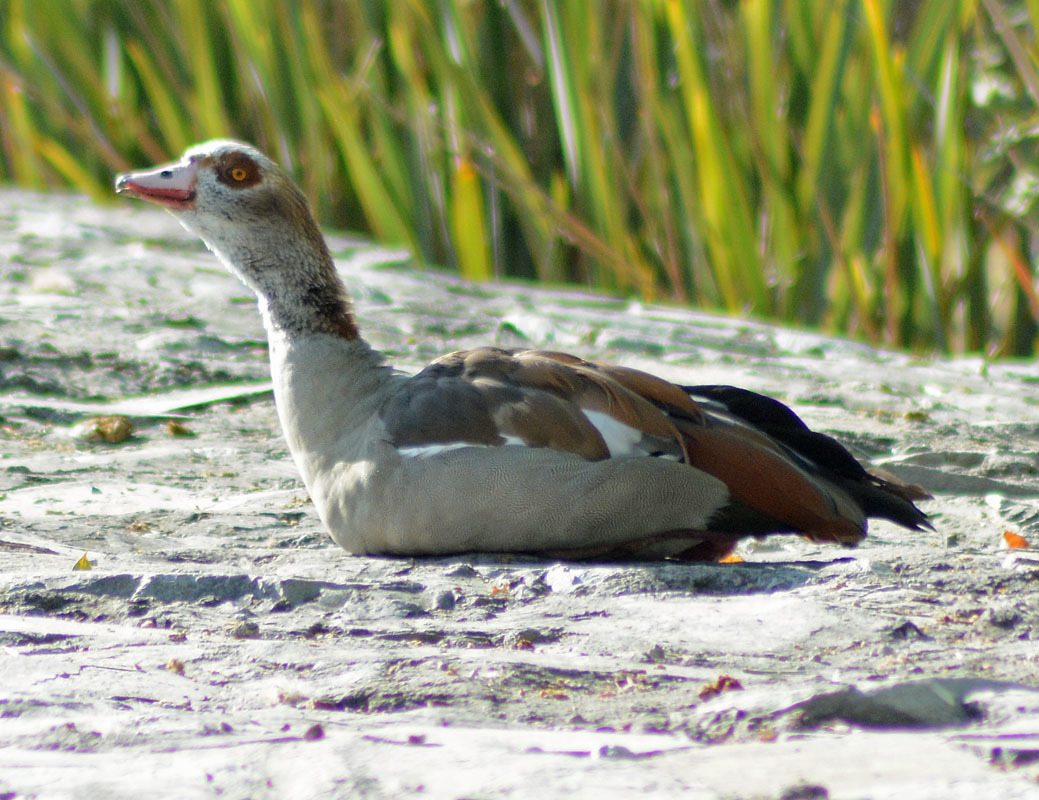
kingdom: Animalia
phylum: Chordata
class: Aves
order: Anseriformes
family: Anatidae
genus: Alopochen
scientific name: Alopochen aegyptiaca
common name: Egyptian goose
